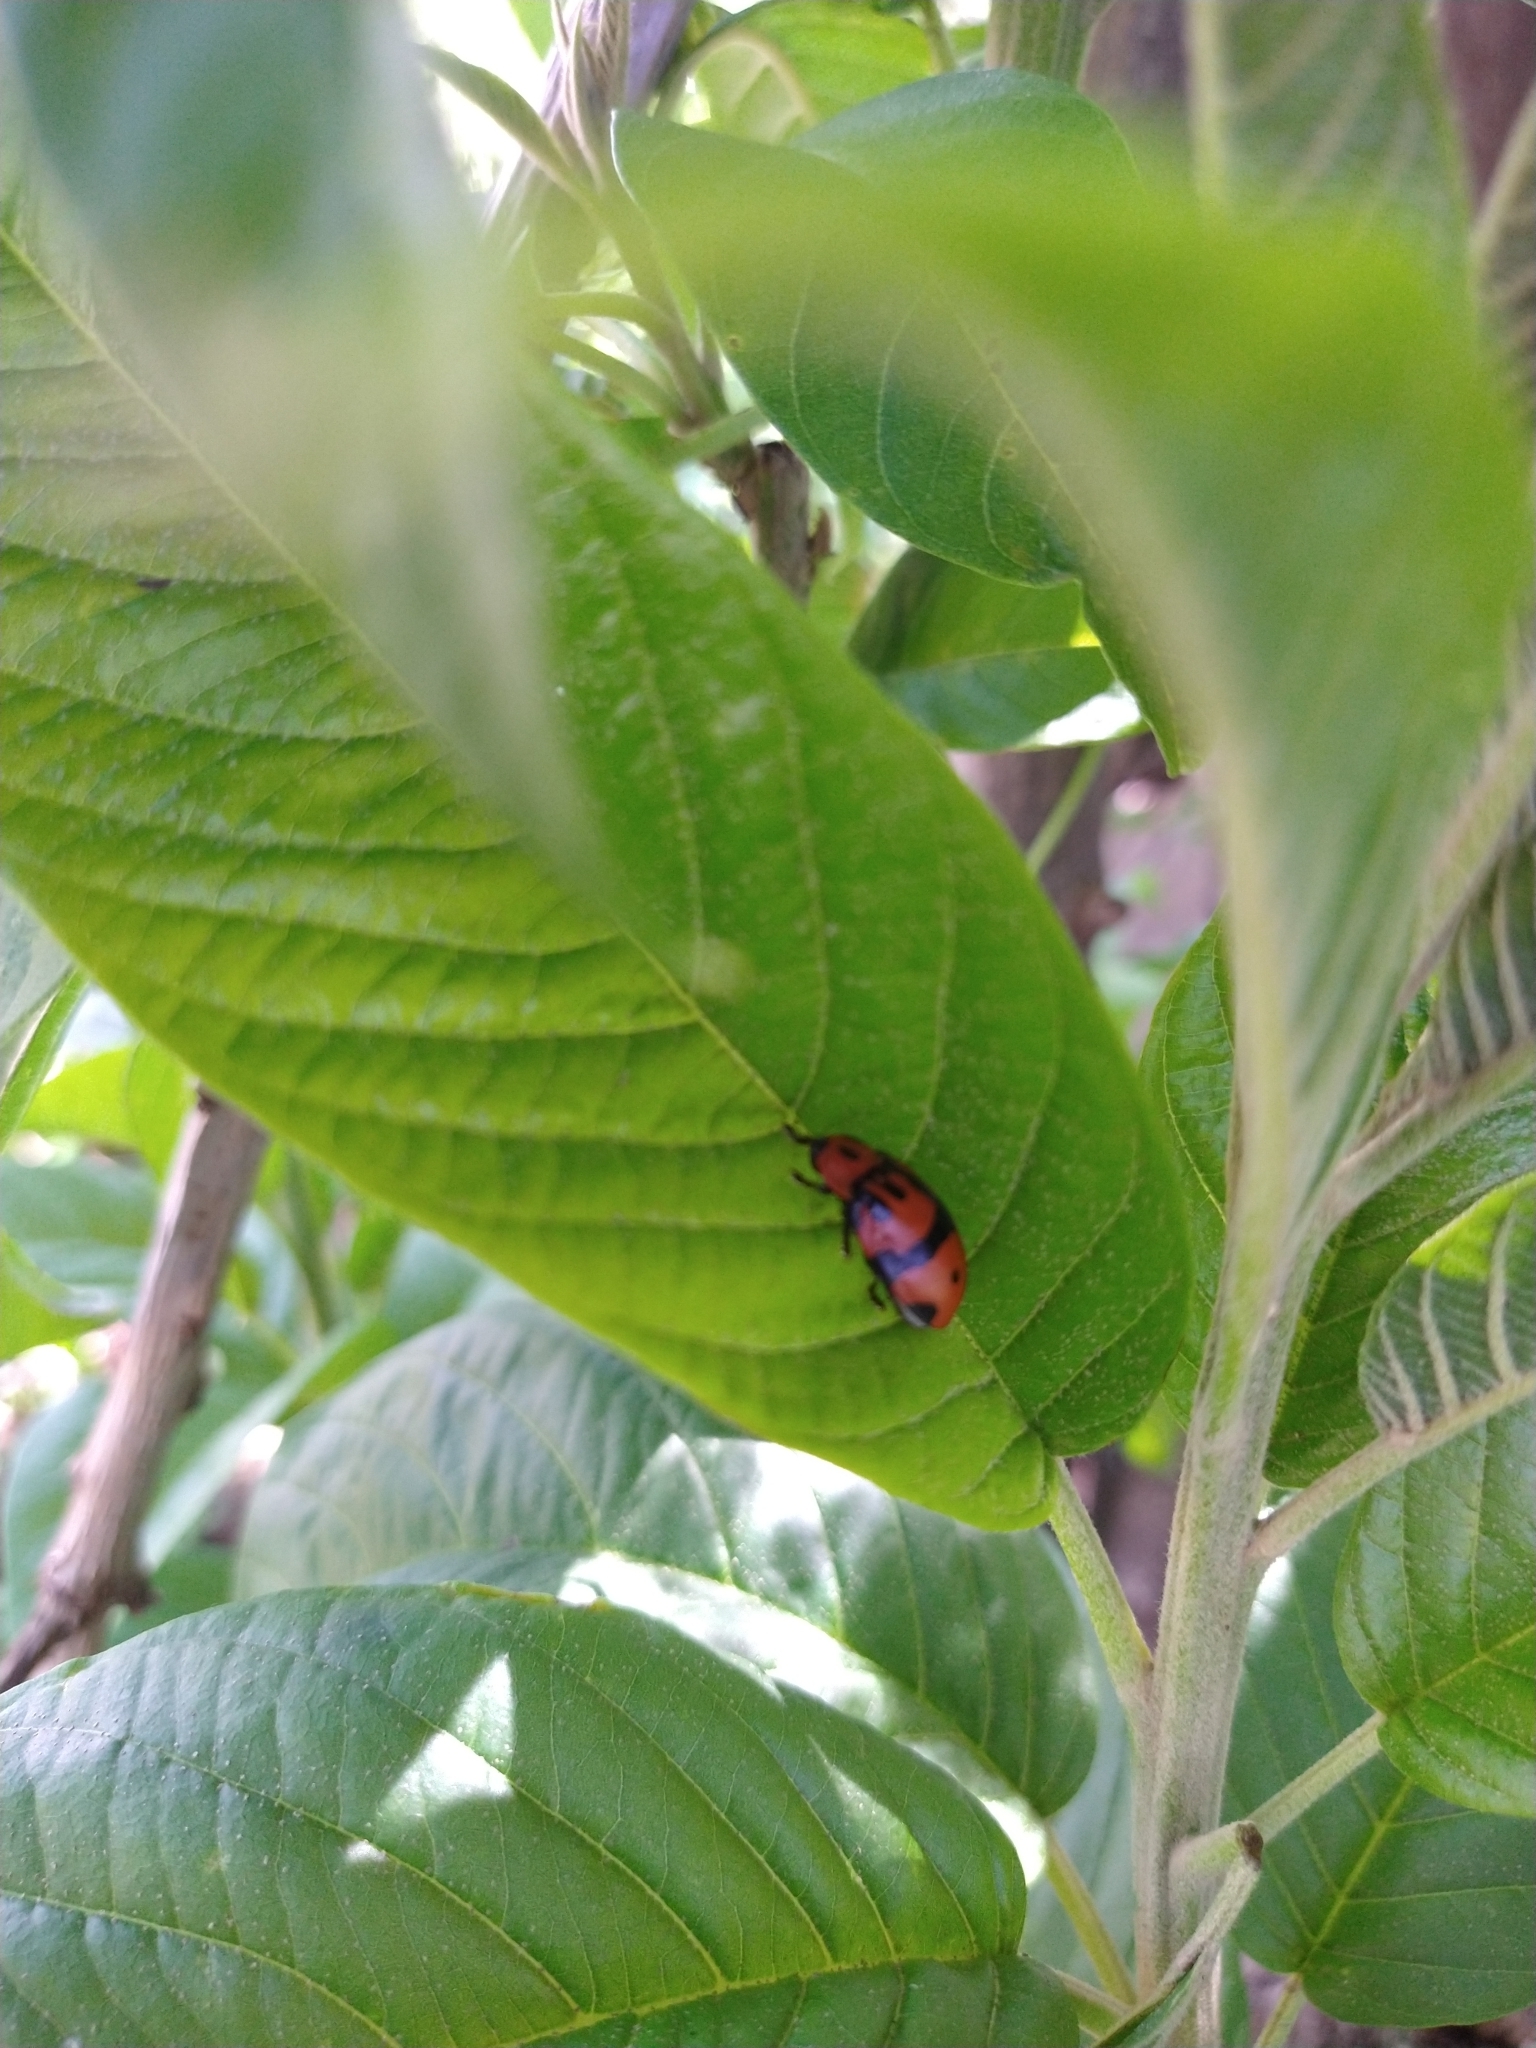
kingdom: Animalia
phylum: Arthropoda
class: Insecta
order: Coleoptera
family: Chrysomelidae
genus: Ogdoecosta
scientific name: Ogdoecosta fasciata
